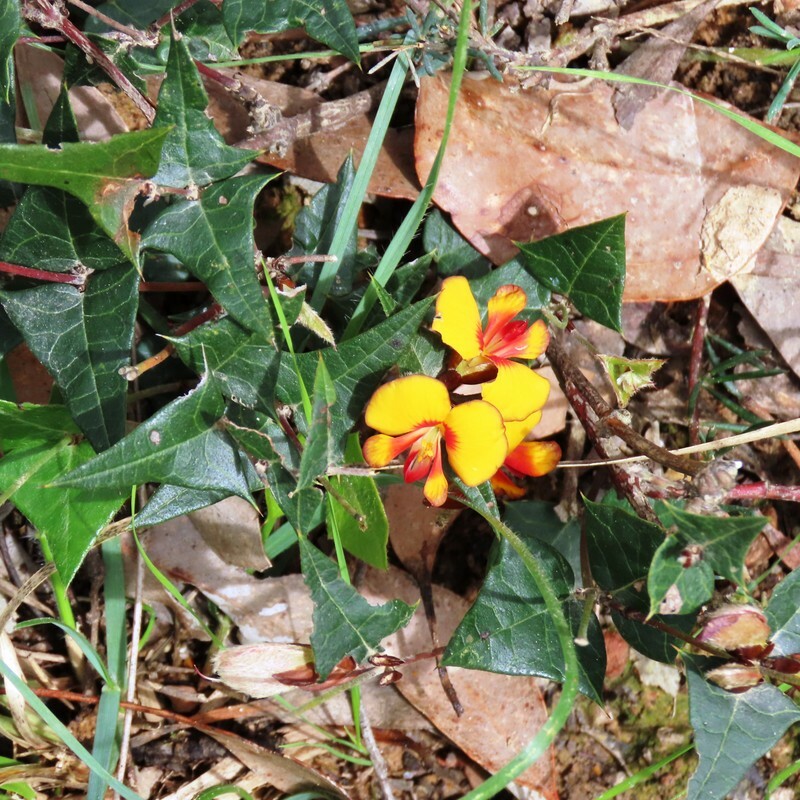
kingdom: Plantae
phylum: Tracheophyta
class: Magnoliopsida
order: Fabales
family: Fabaceae
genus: Platylobium
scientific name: Platylobium obtusangulum
